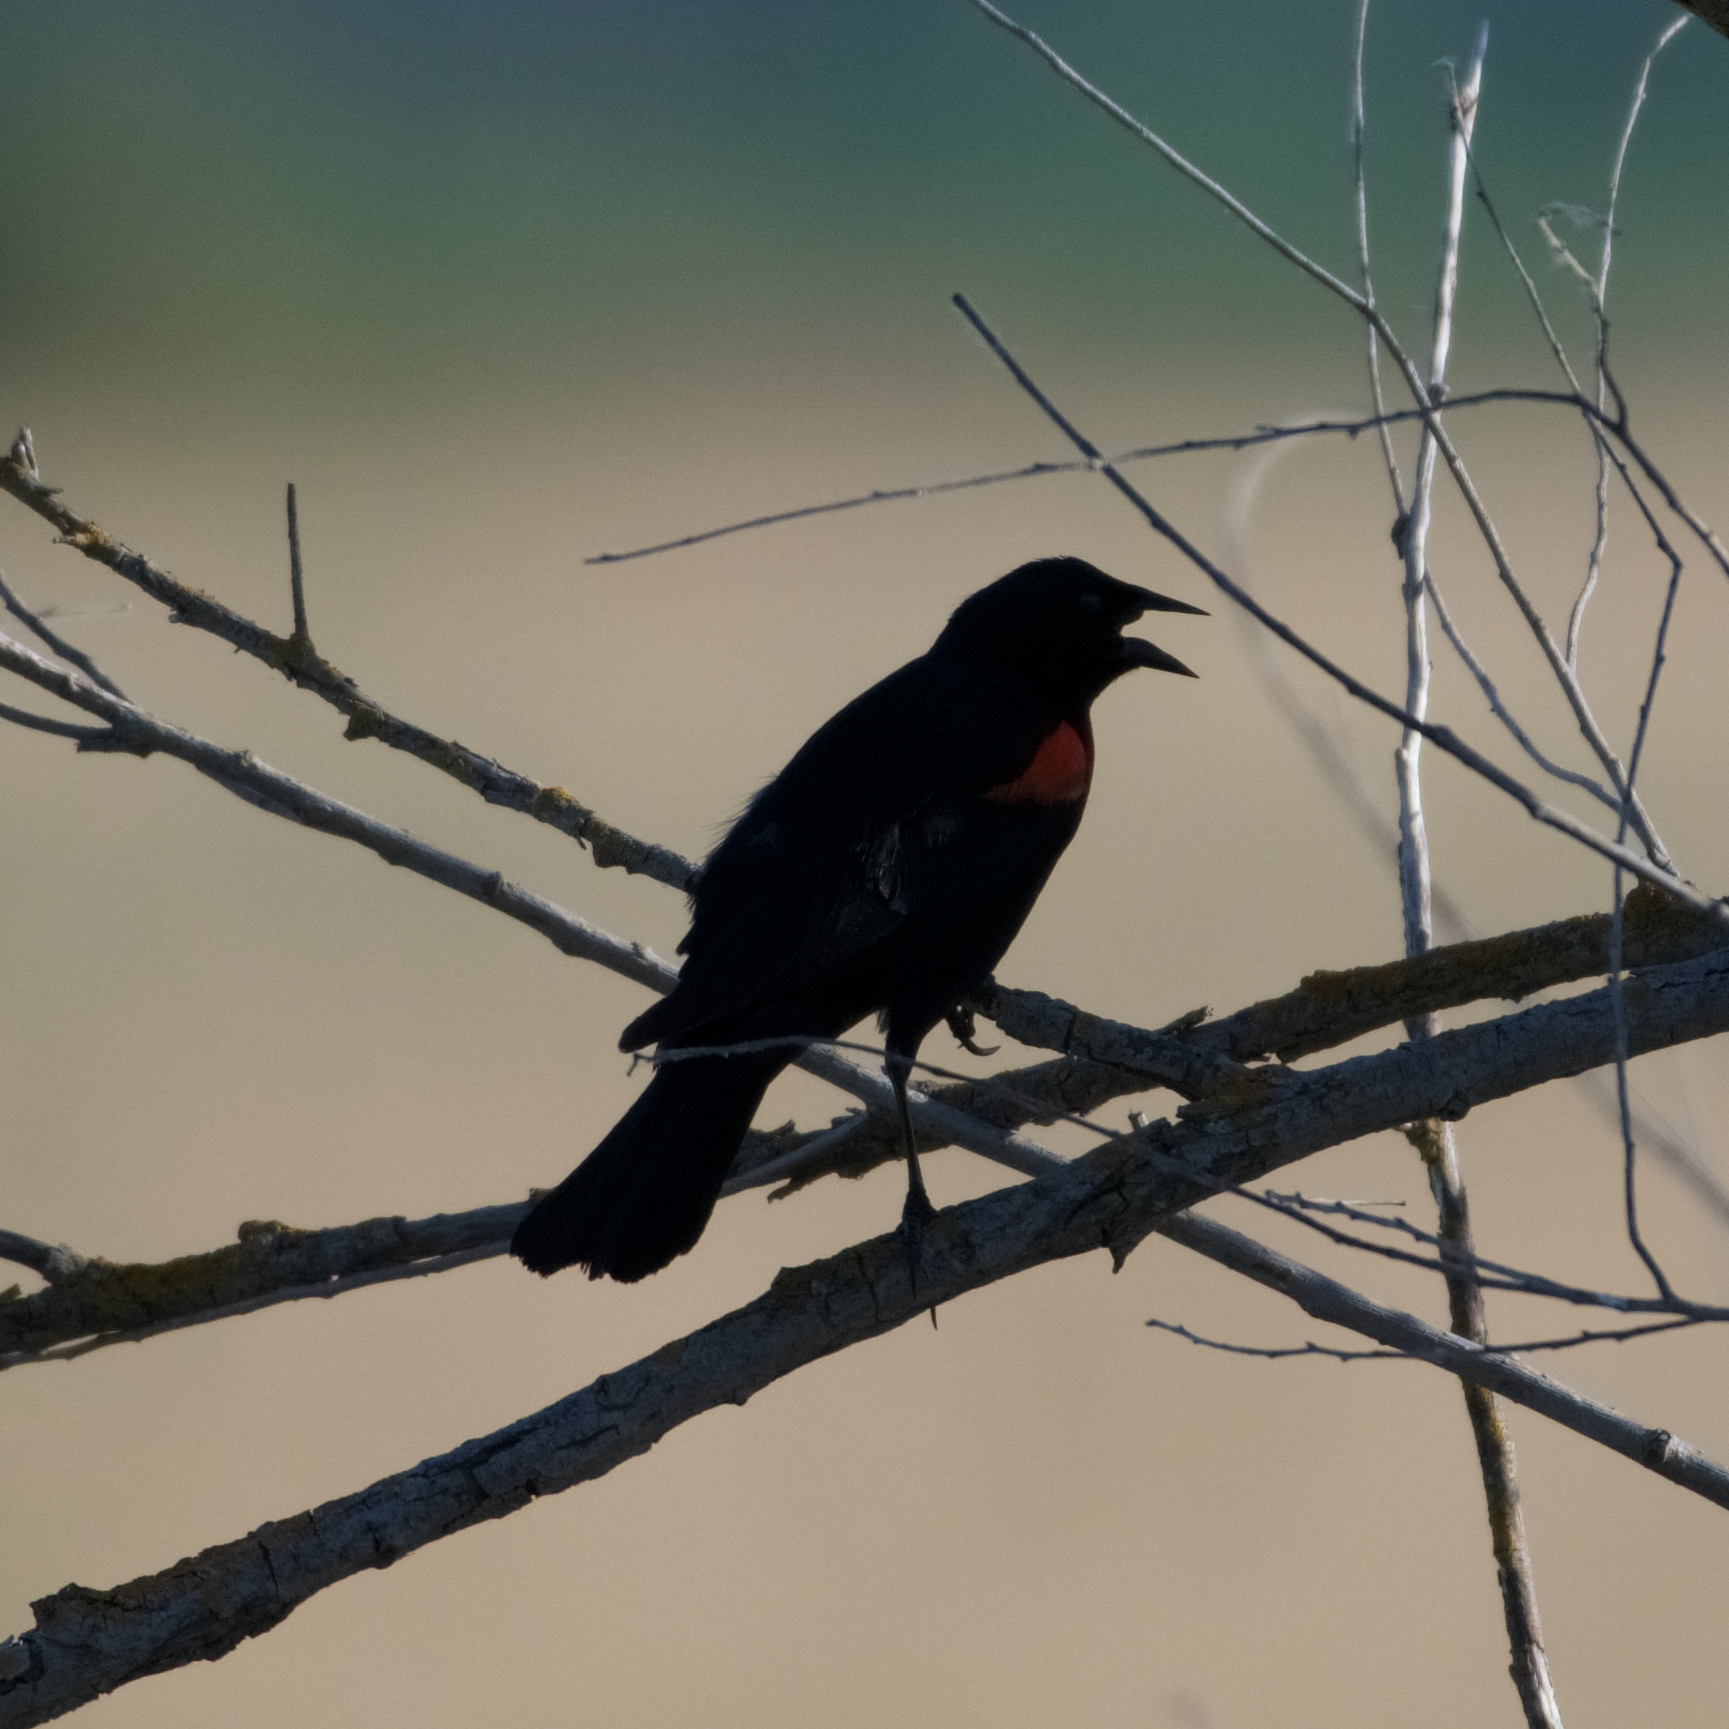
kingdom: Animalia
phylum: Chordata
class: Aves
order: Passeriformes
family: Icteridae
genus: Agelaius
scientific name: Agelaius phoeniceus
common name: Red-winged blackbird
